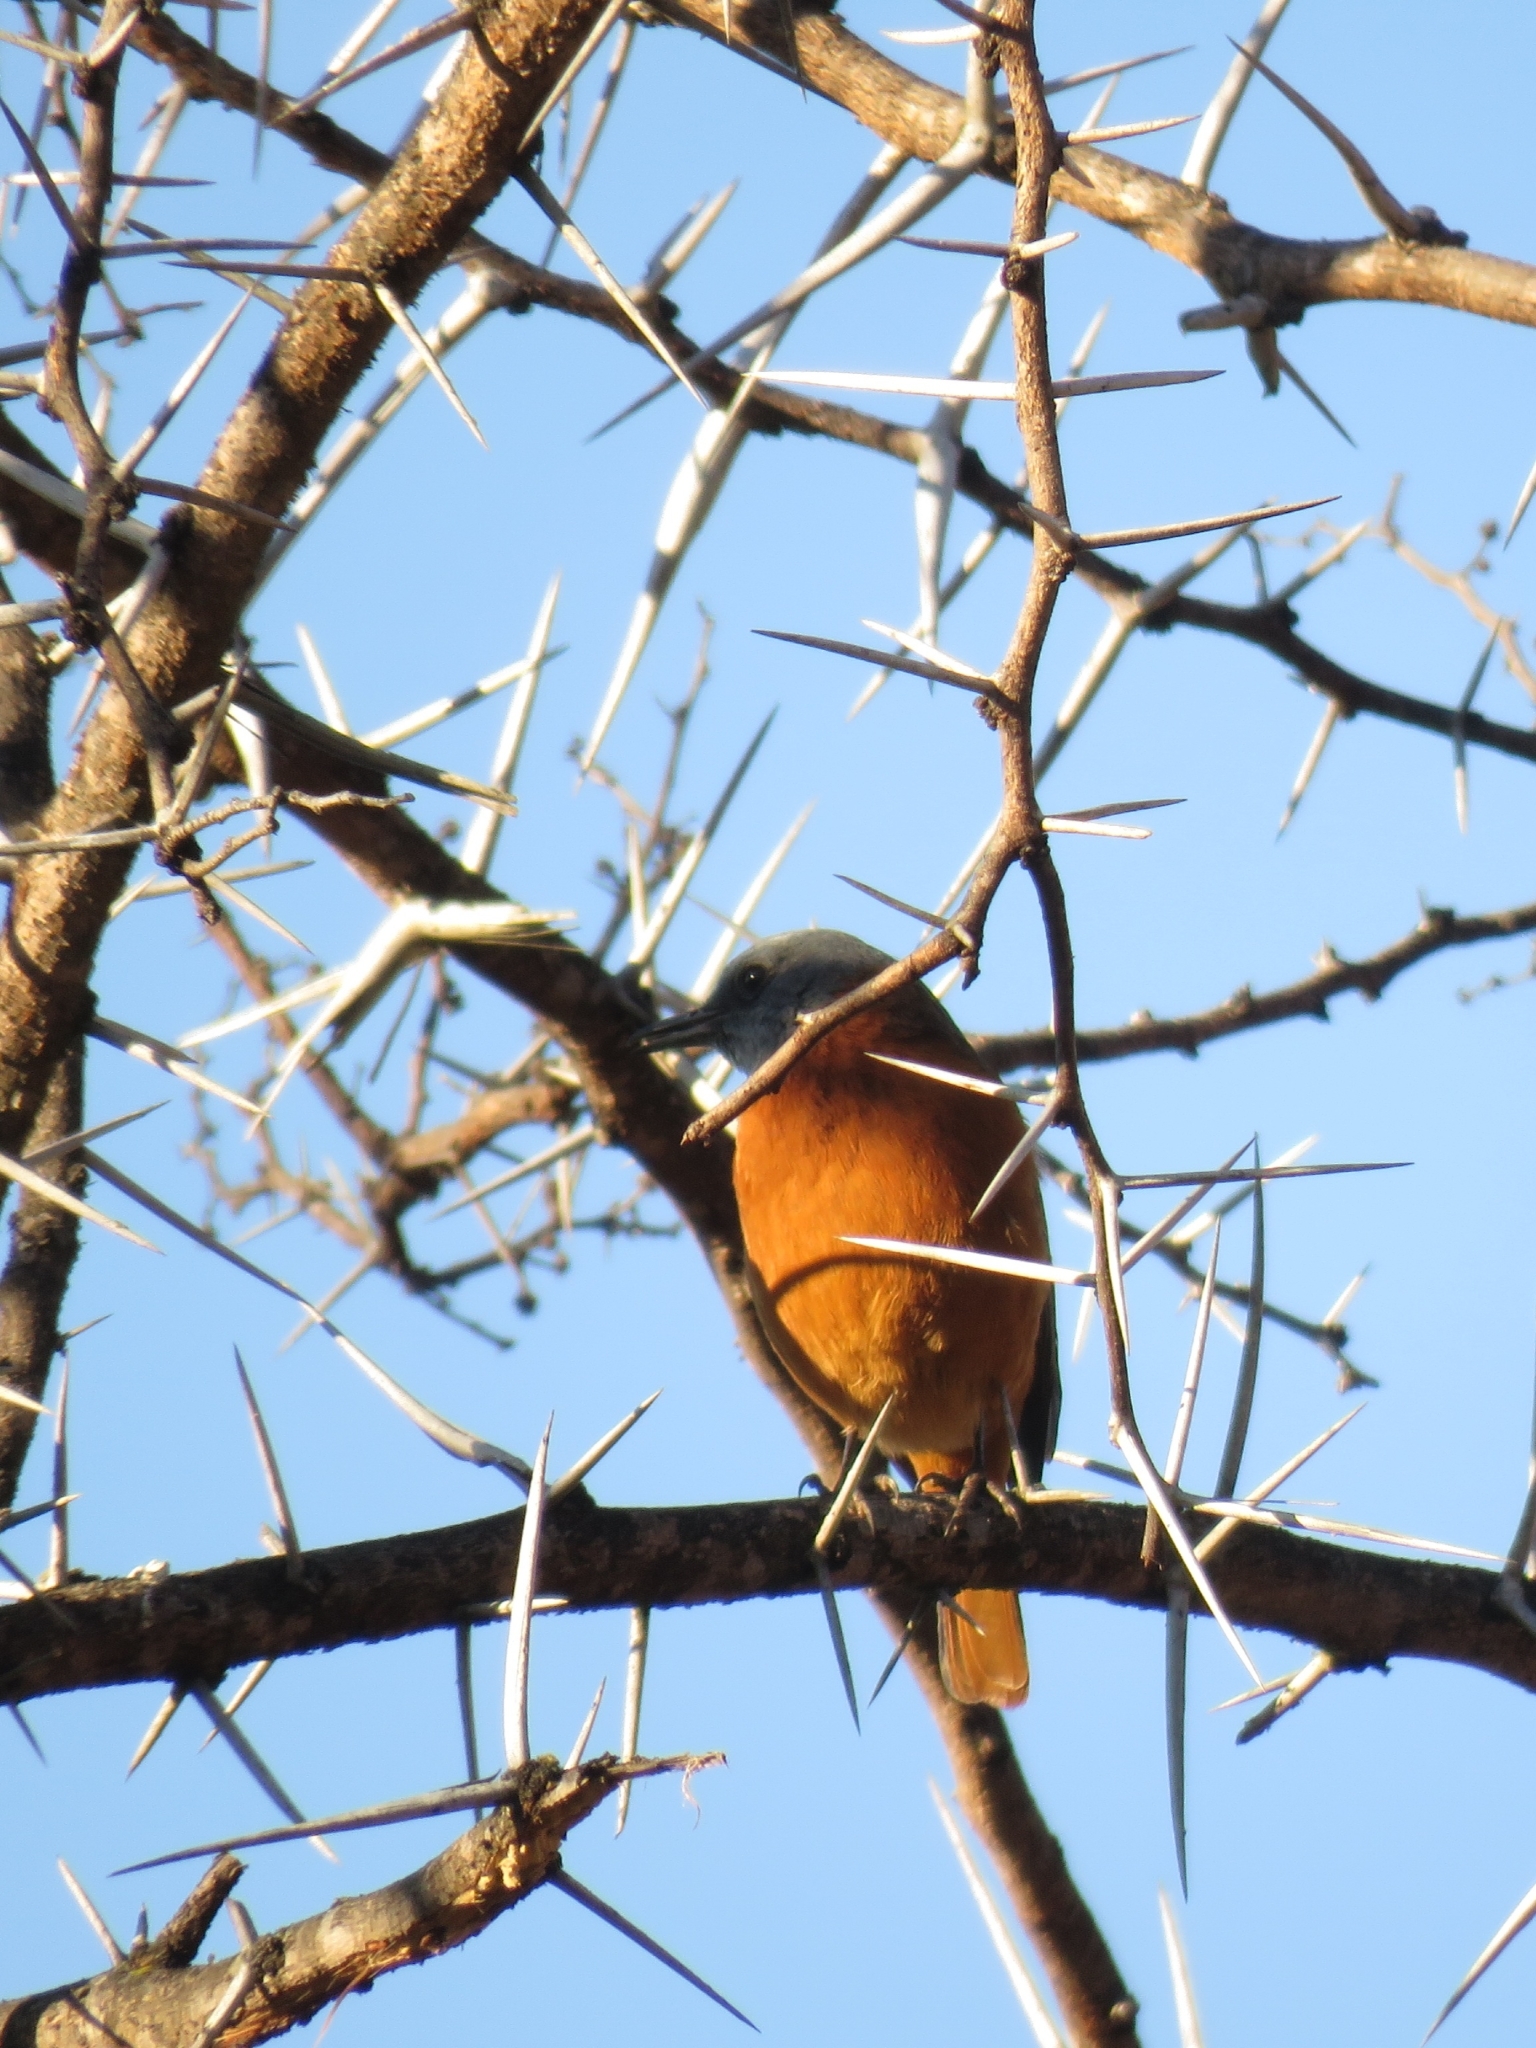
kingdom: Animalia
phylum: Chordata
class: Aves
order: Passeriformes
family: Muscicapidae
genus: Monticola
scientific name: Monticola rupestris
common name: Cape rock thrush
